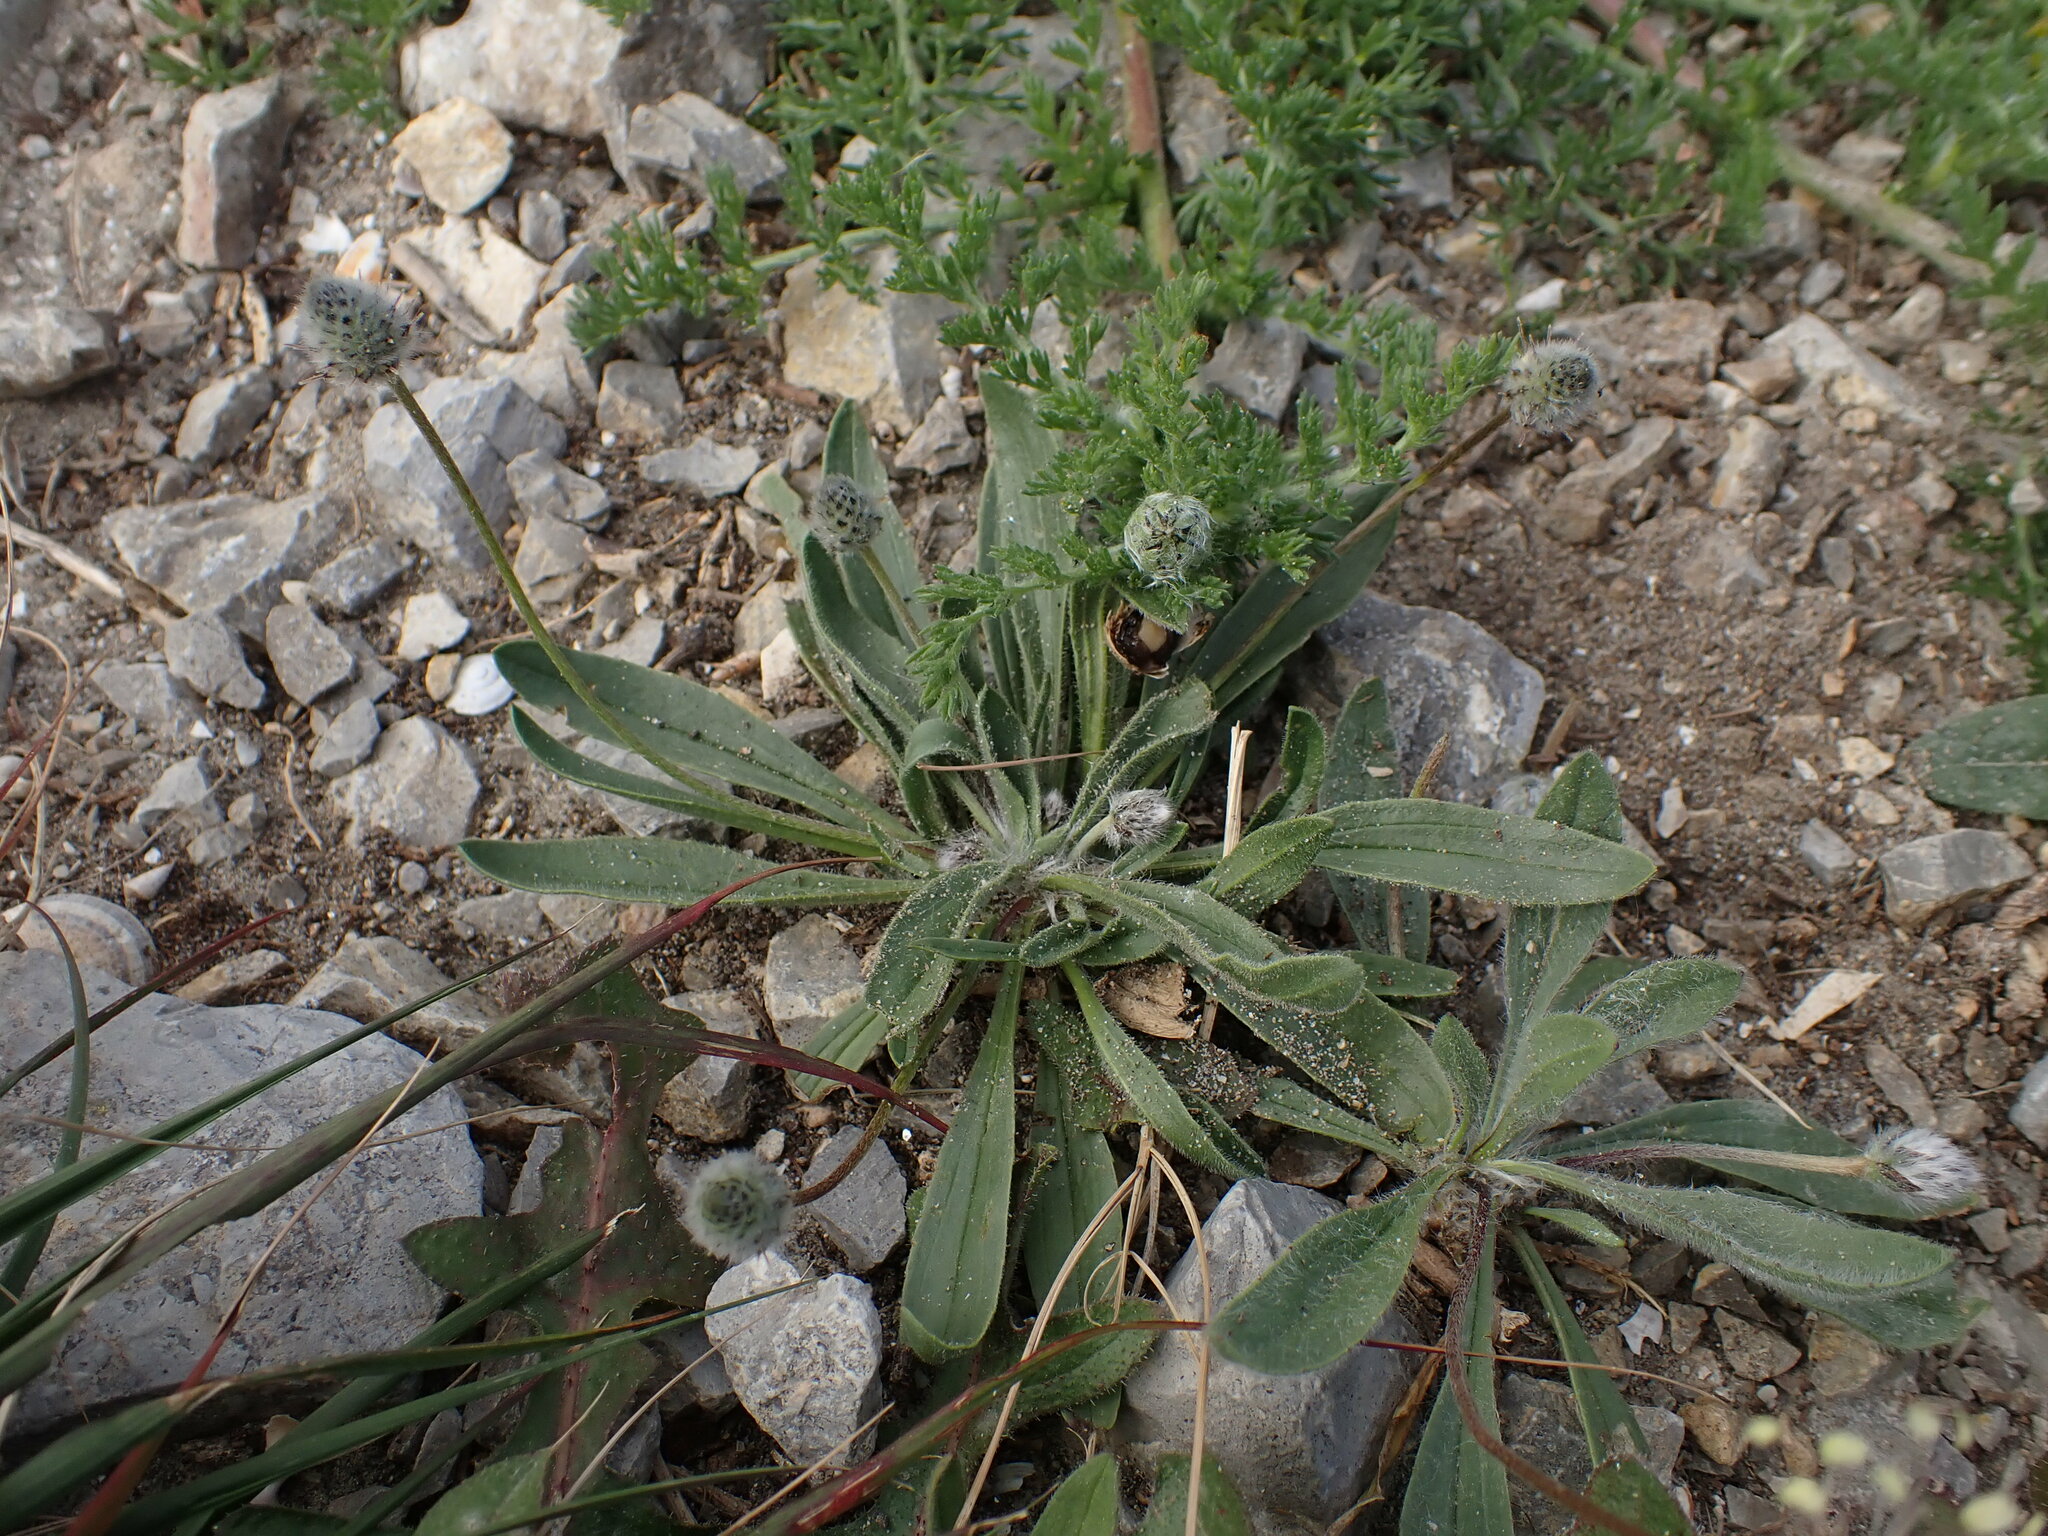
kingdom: Plantae
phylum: Tracheophyta
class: Magnoliopsida
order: Lamiales
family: Plantaginaceae
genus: Plantago
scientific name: Plantago lagopus
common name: Hare-foot plantain
